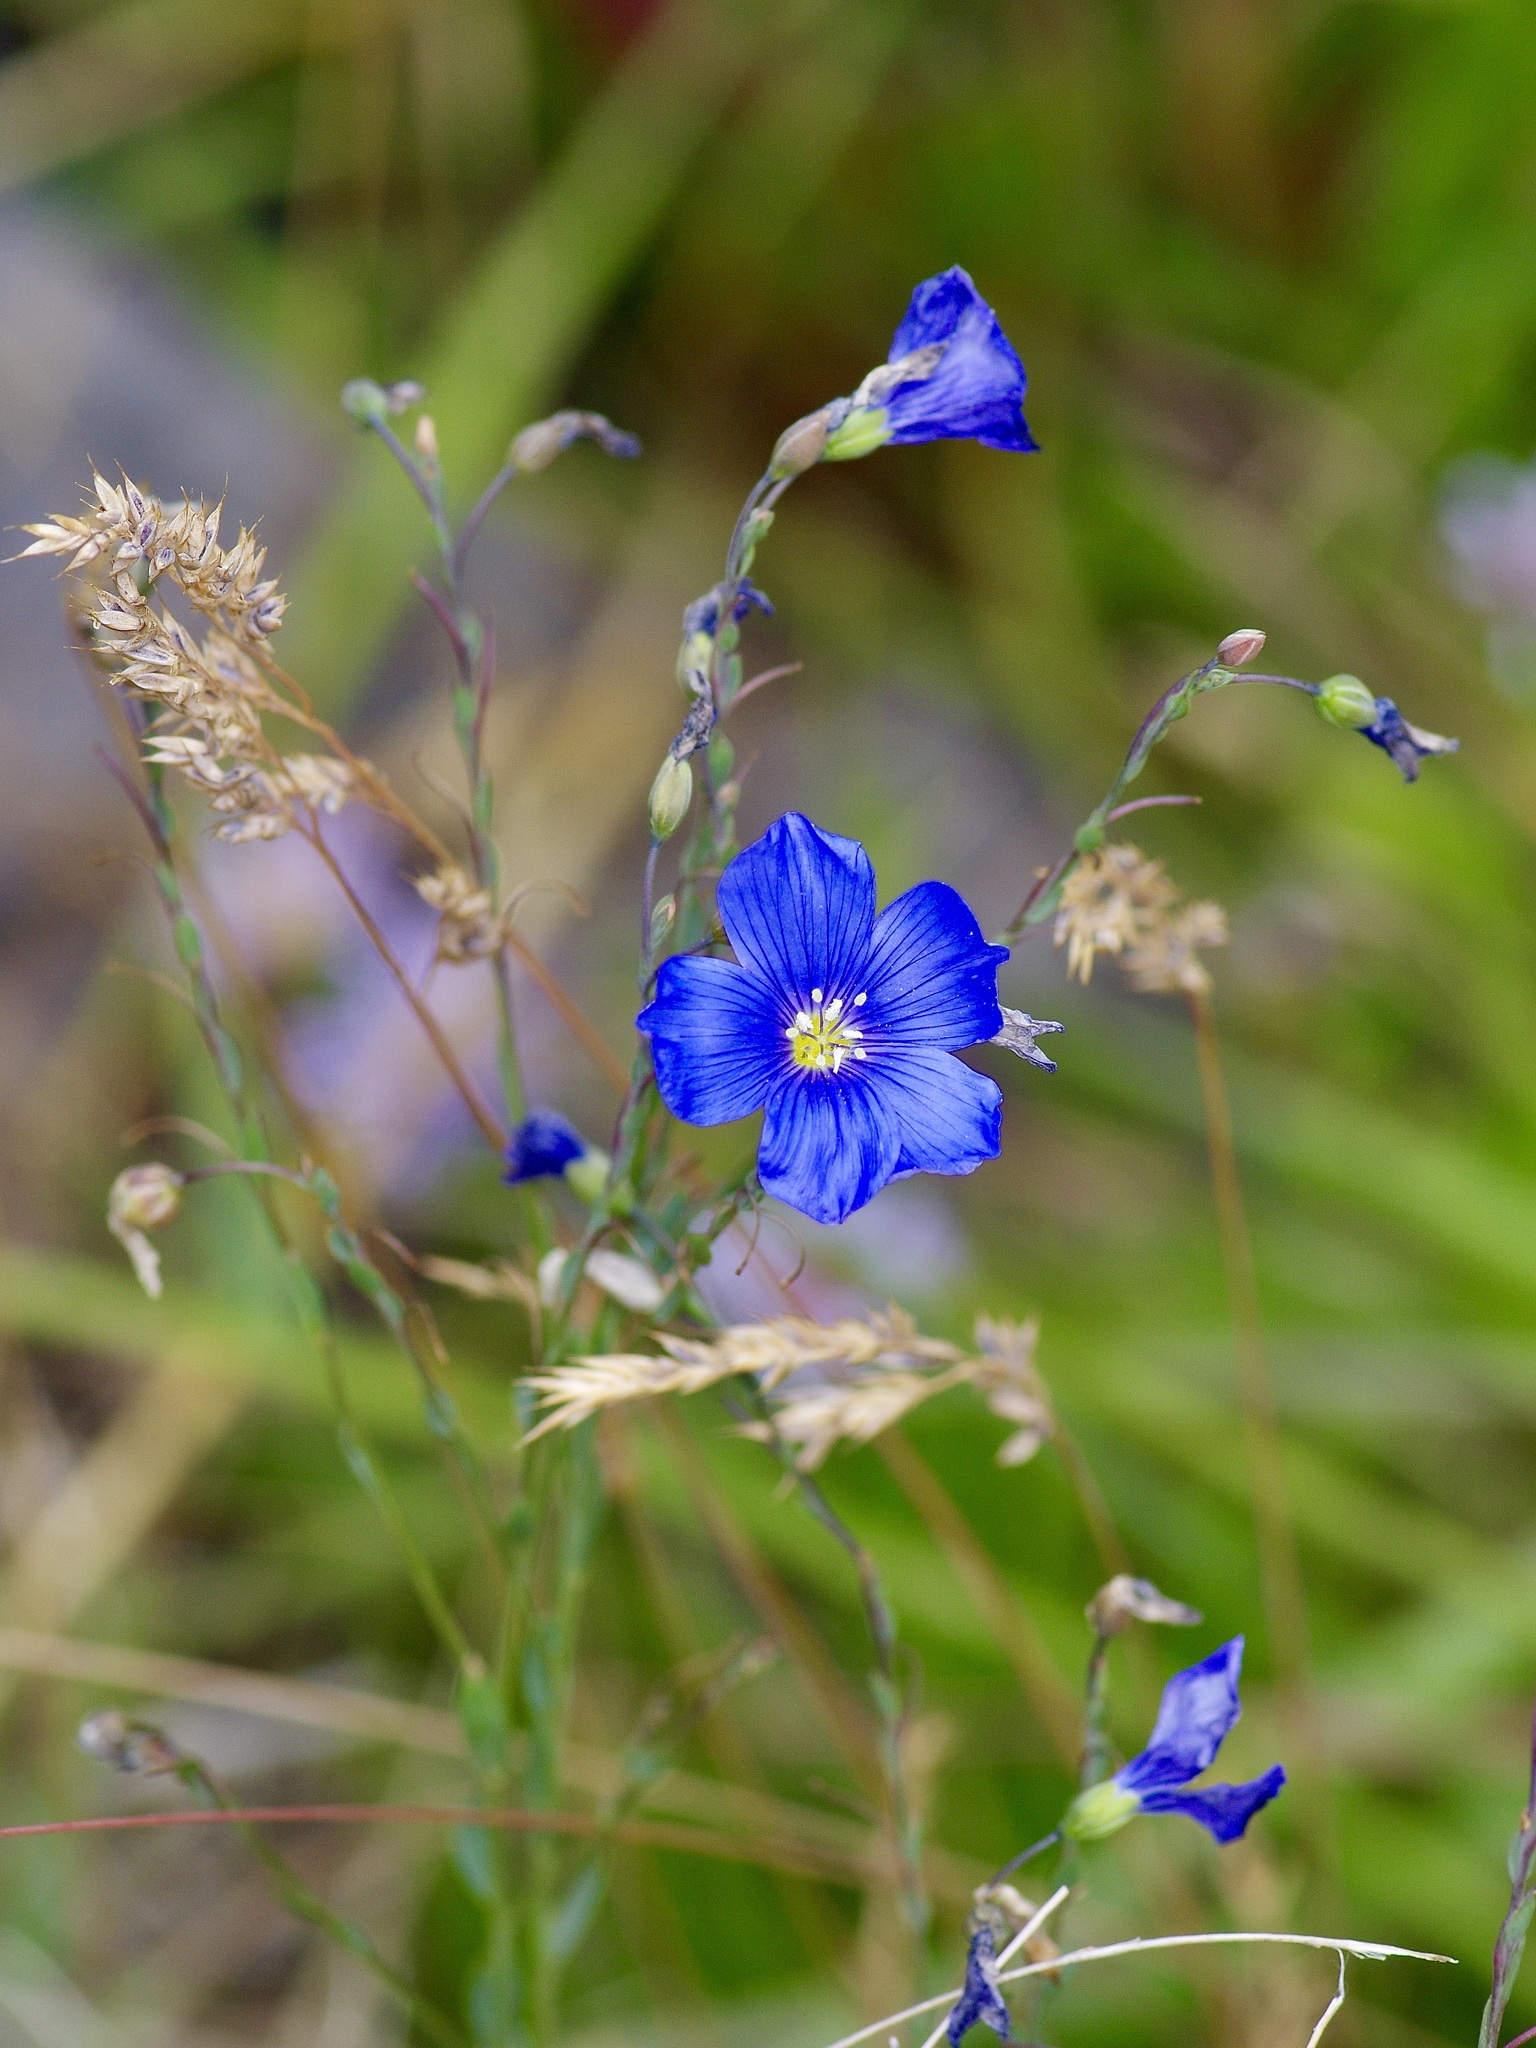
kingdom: Plantae
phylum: Tracheophyta
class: Magnoliopsida
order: Malpighiales
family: Linaceae
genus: Linum
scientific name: Linum lewisii
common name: Prairie flax
